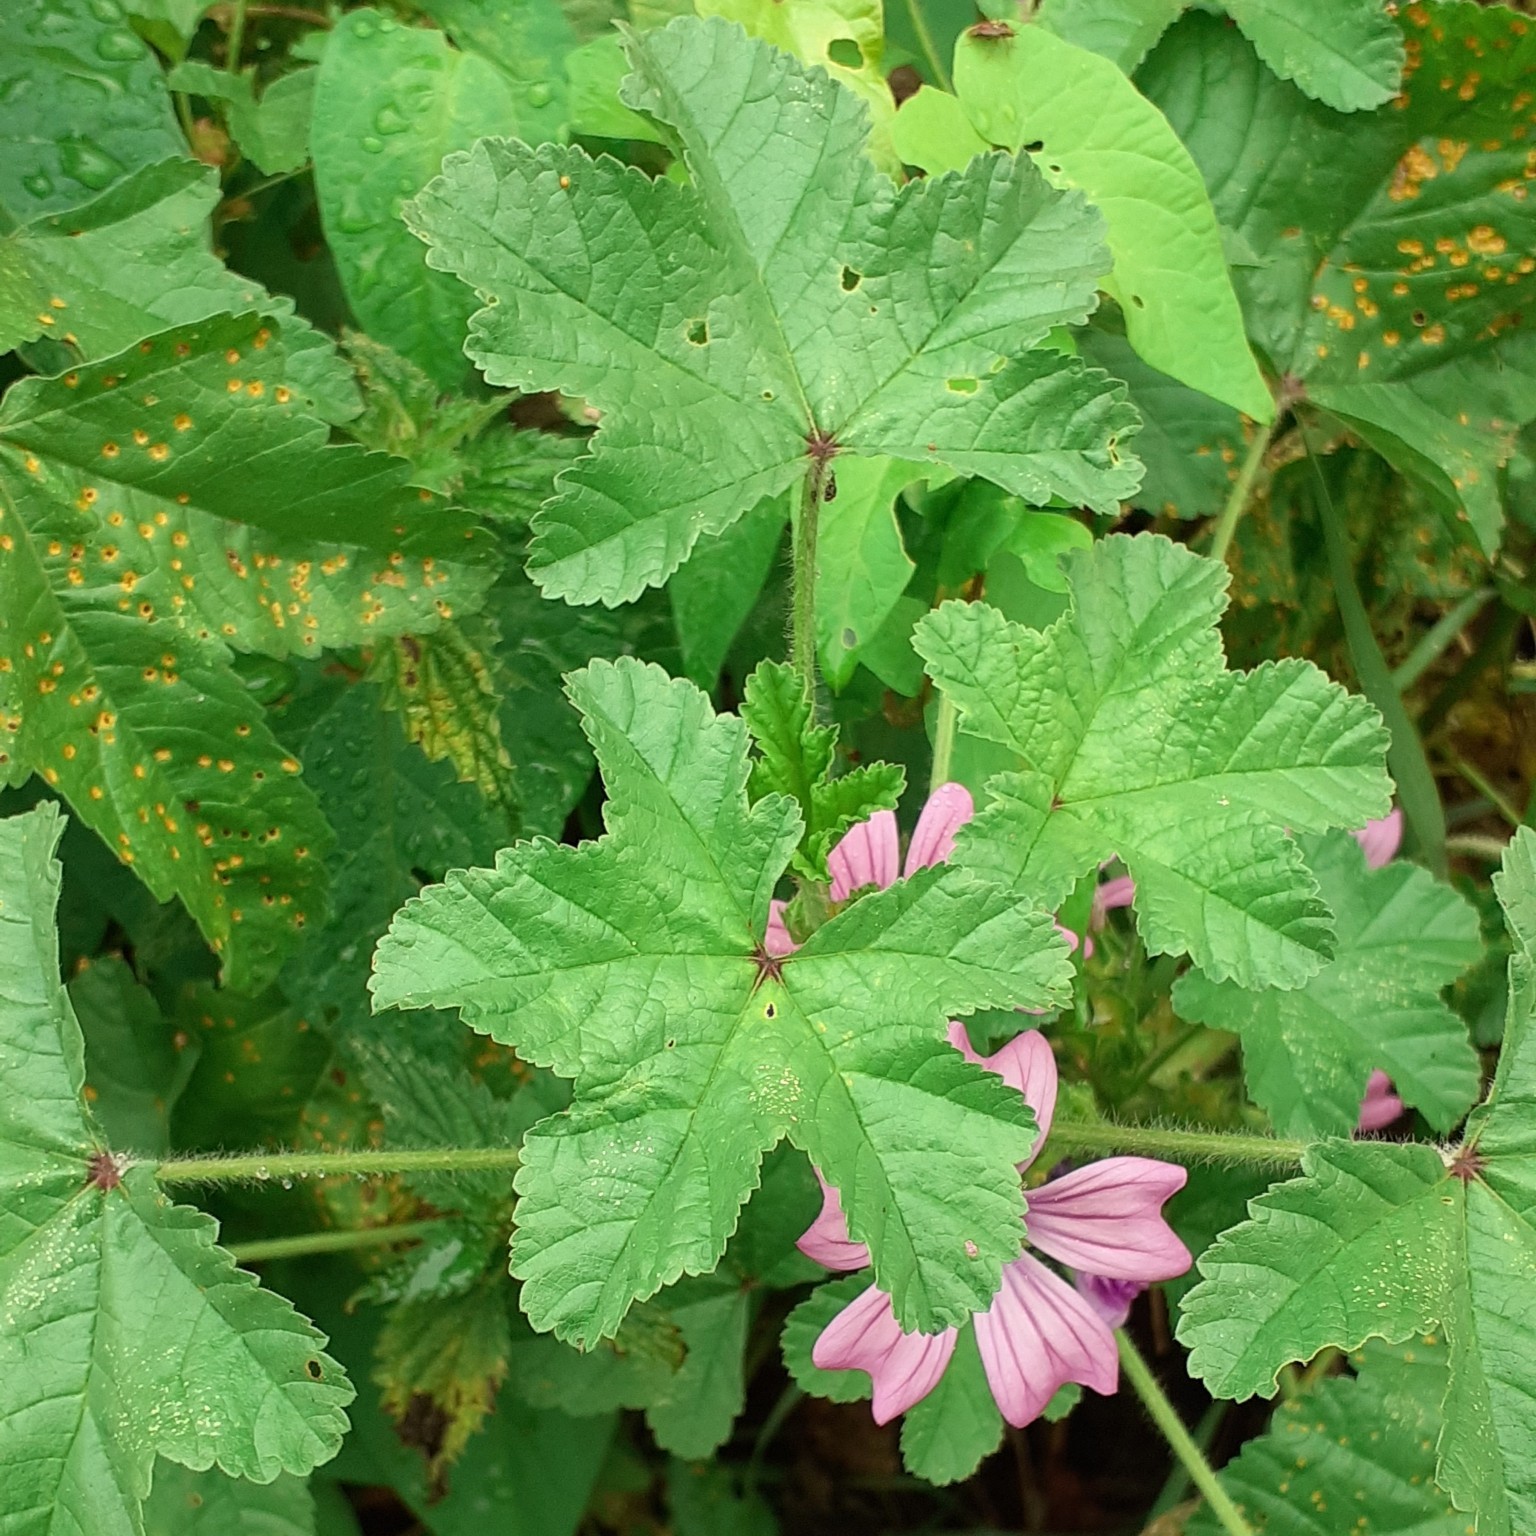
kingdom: Plantae
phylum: Tracheophyta
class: Magnoliopsida
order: Malvales
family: Malvaceae
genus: Malva
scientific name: Malva sylvestris
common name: Common mallow
